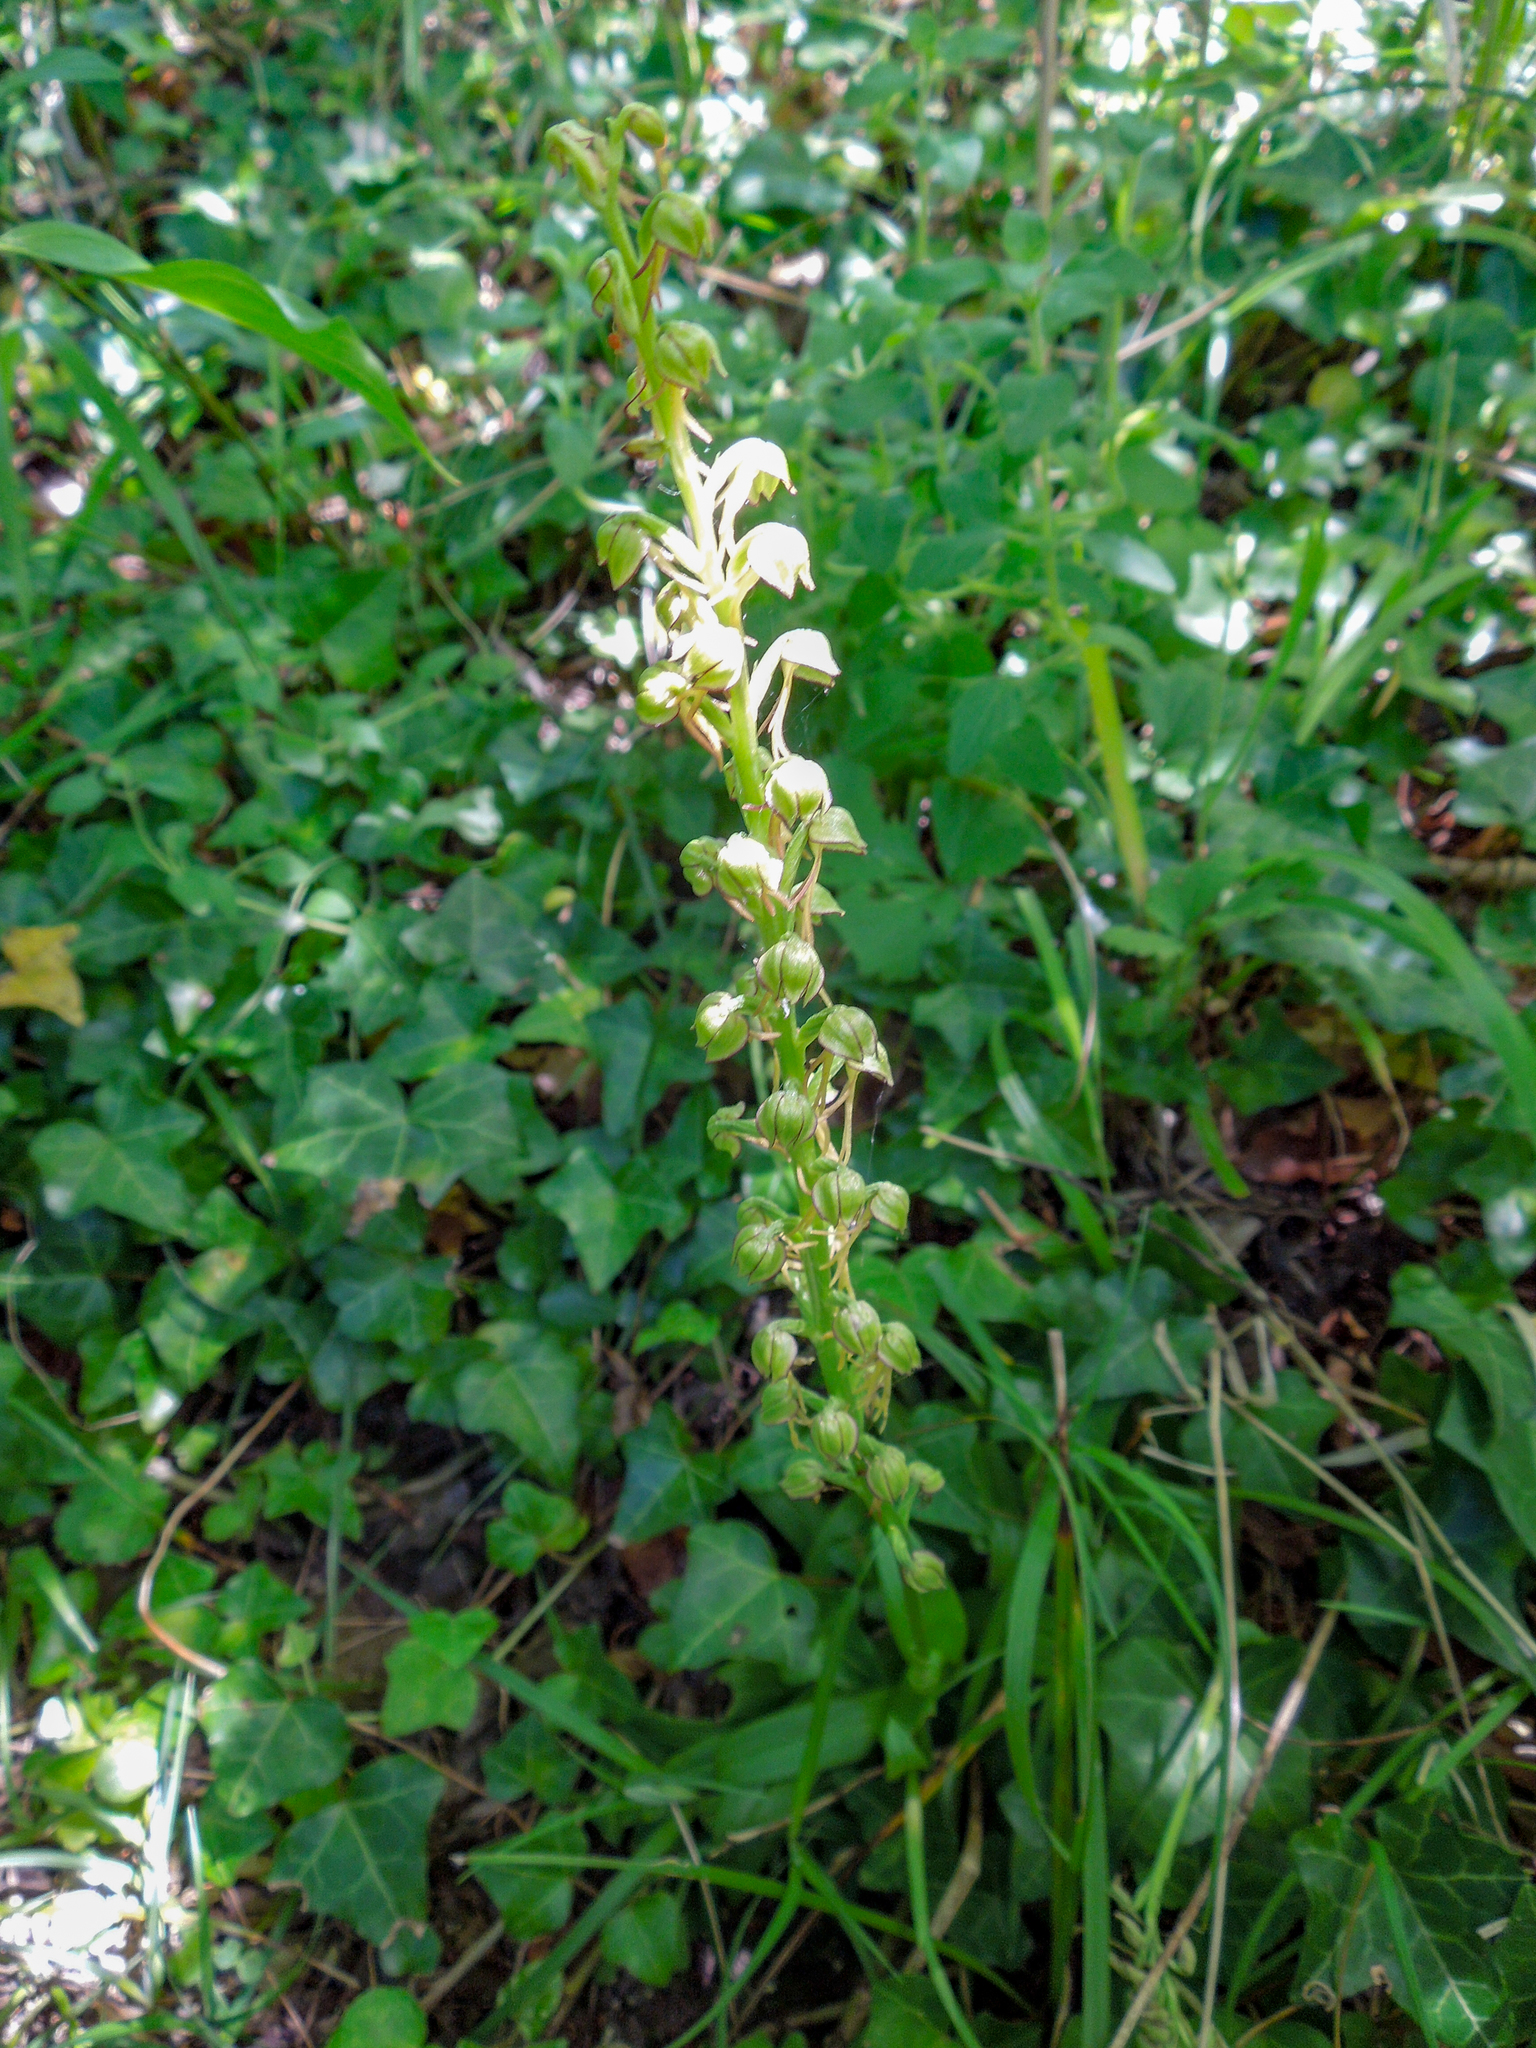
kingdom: Plantae
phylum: Tracheophyta
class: Liliopsida
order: Asparagales
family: Orchidaceae
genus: Orchis
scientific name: Orchis anthropophora
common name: Man orchid
